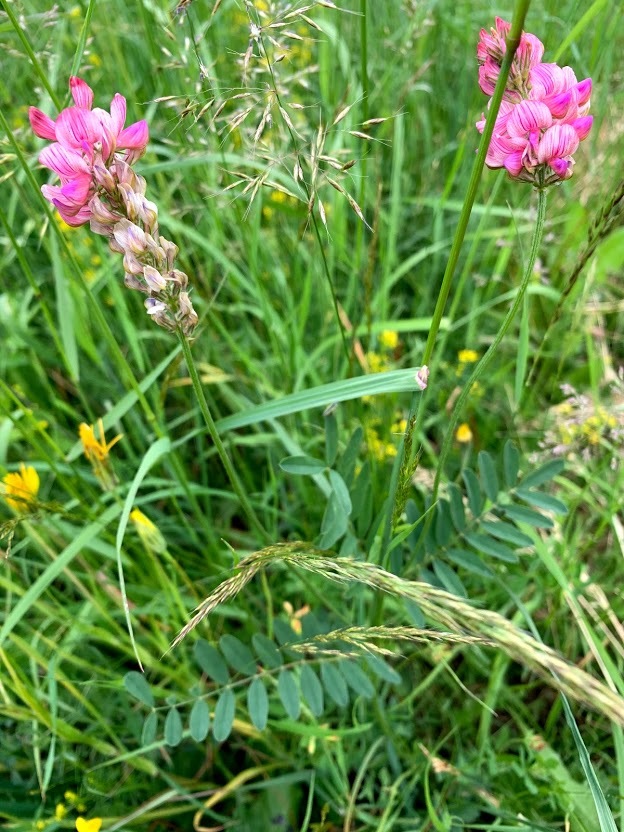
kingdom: Plantae
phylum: Tracheophyta
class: Magnoliopsida
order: Fabales
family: Fabaceae
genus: Onobrychis
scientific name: Onobrychis viciifolia
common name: Sainfoin
